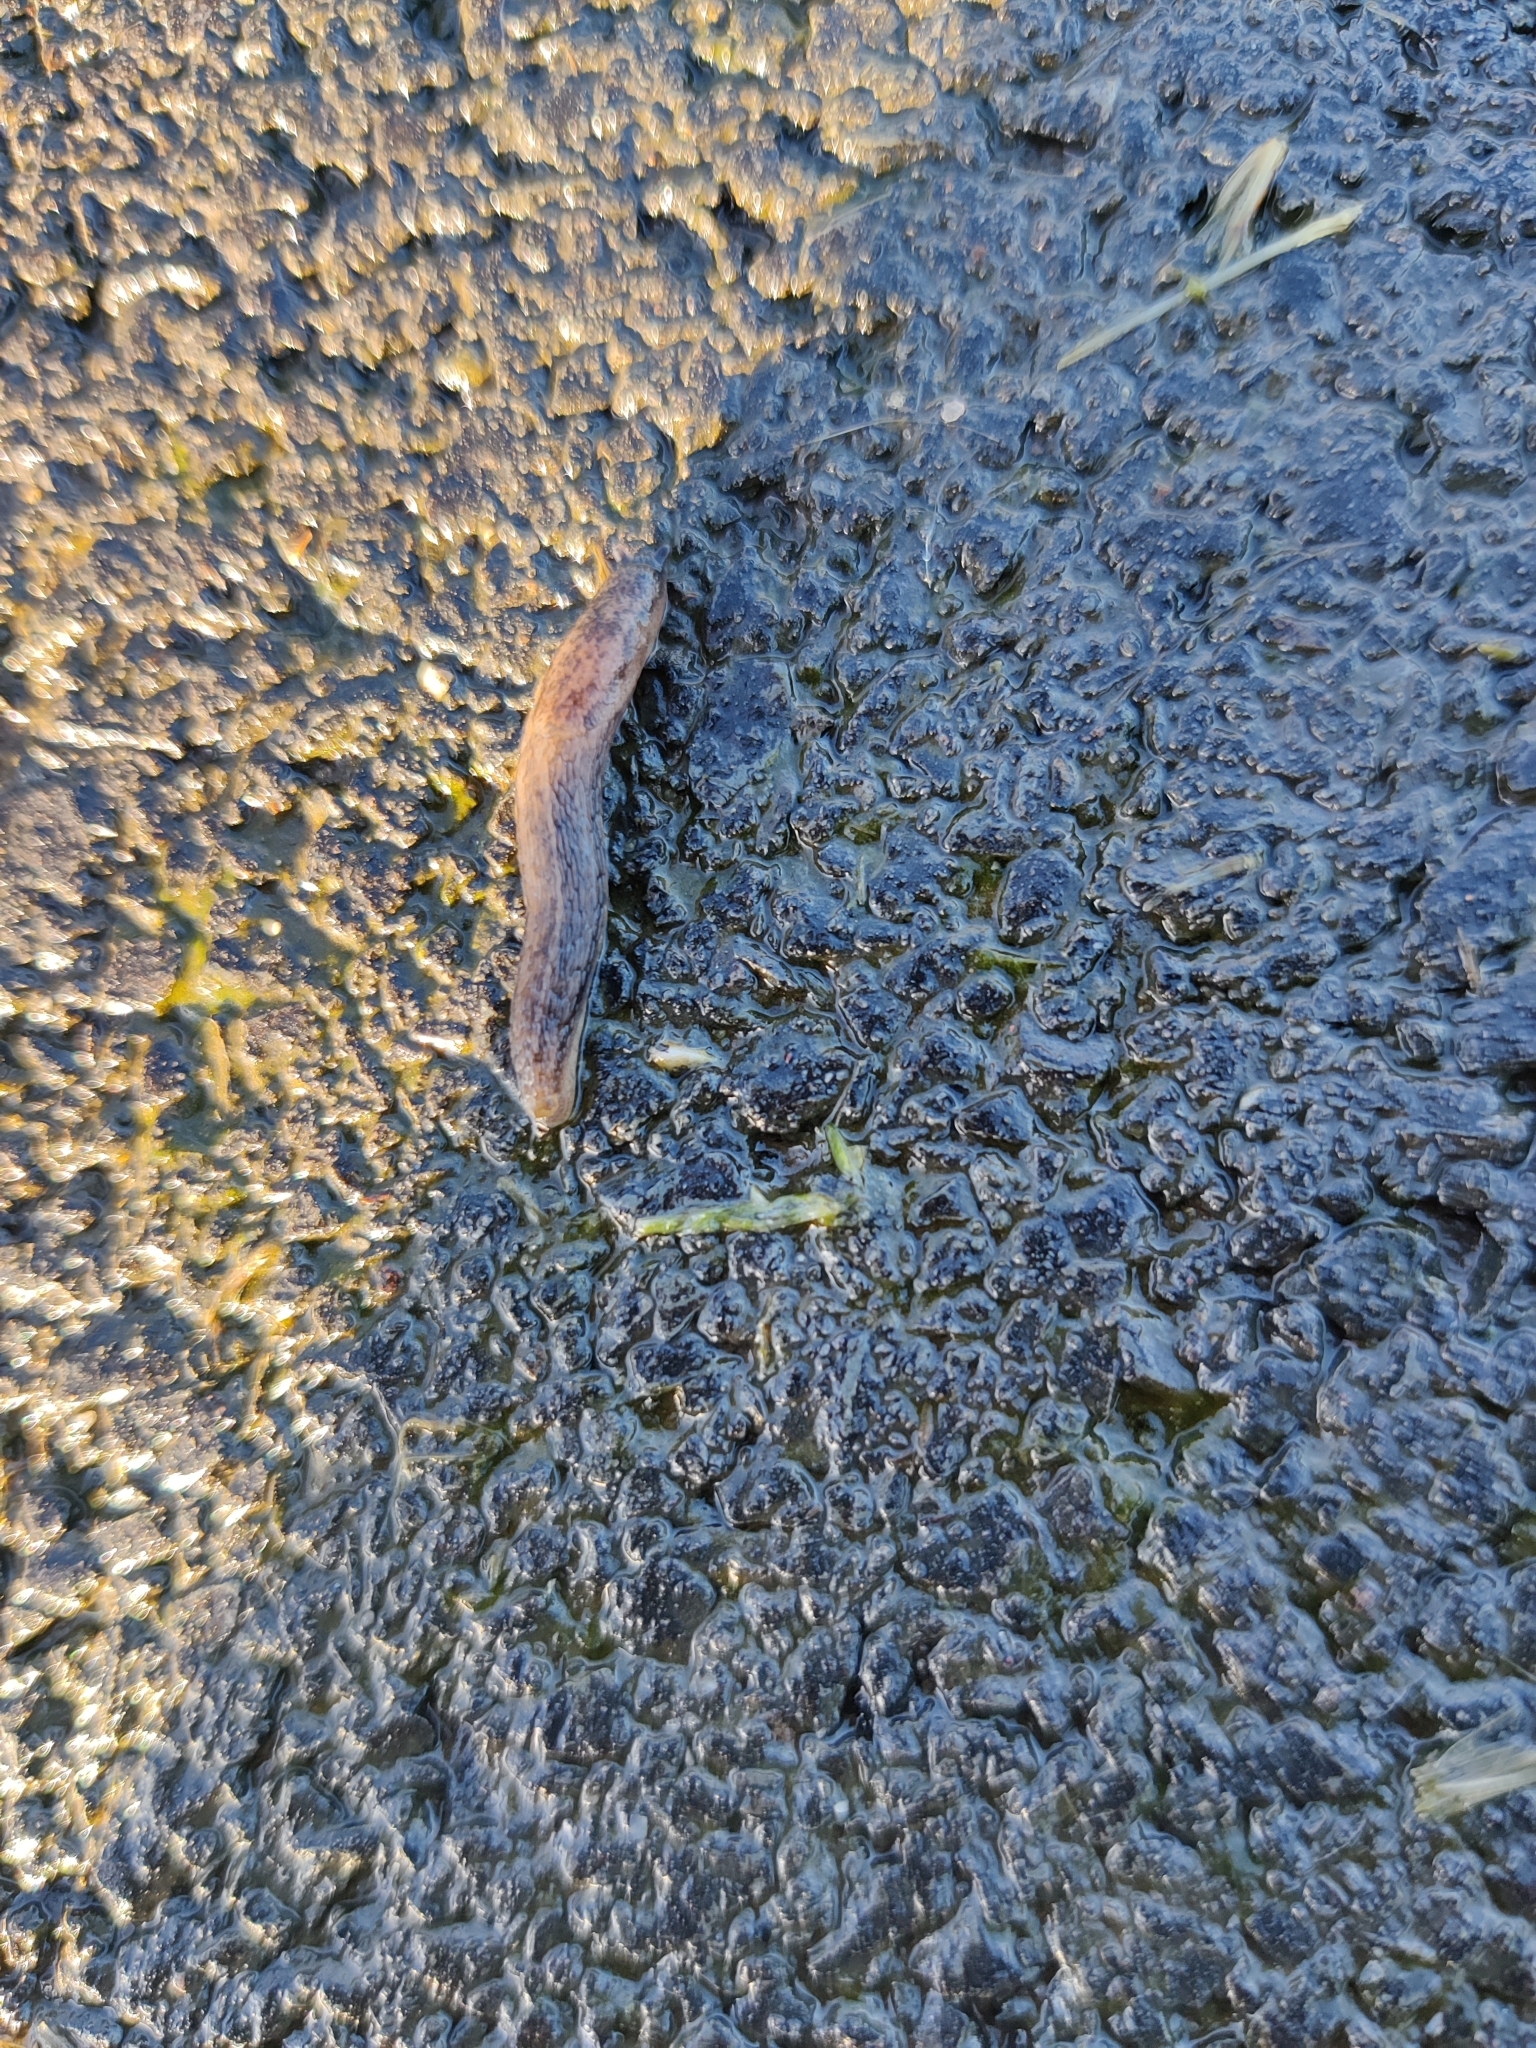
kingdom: Animalia
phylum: Mollusca
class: Gastropoda
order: Stylommatophora
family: Arionidae
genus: Arion
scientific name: Arion fasciatus
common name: Orange-banded arion
